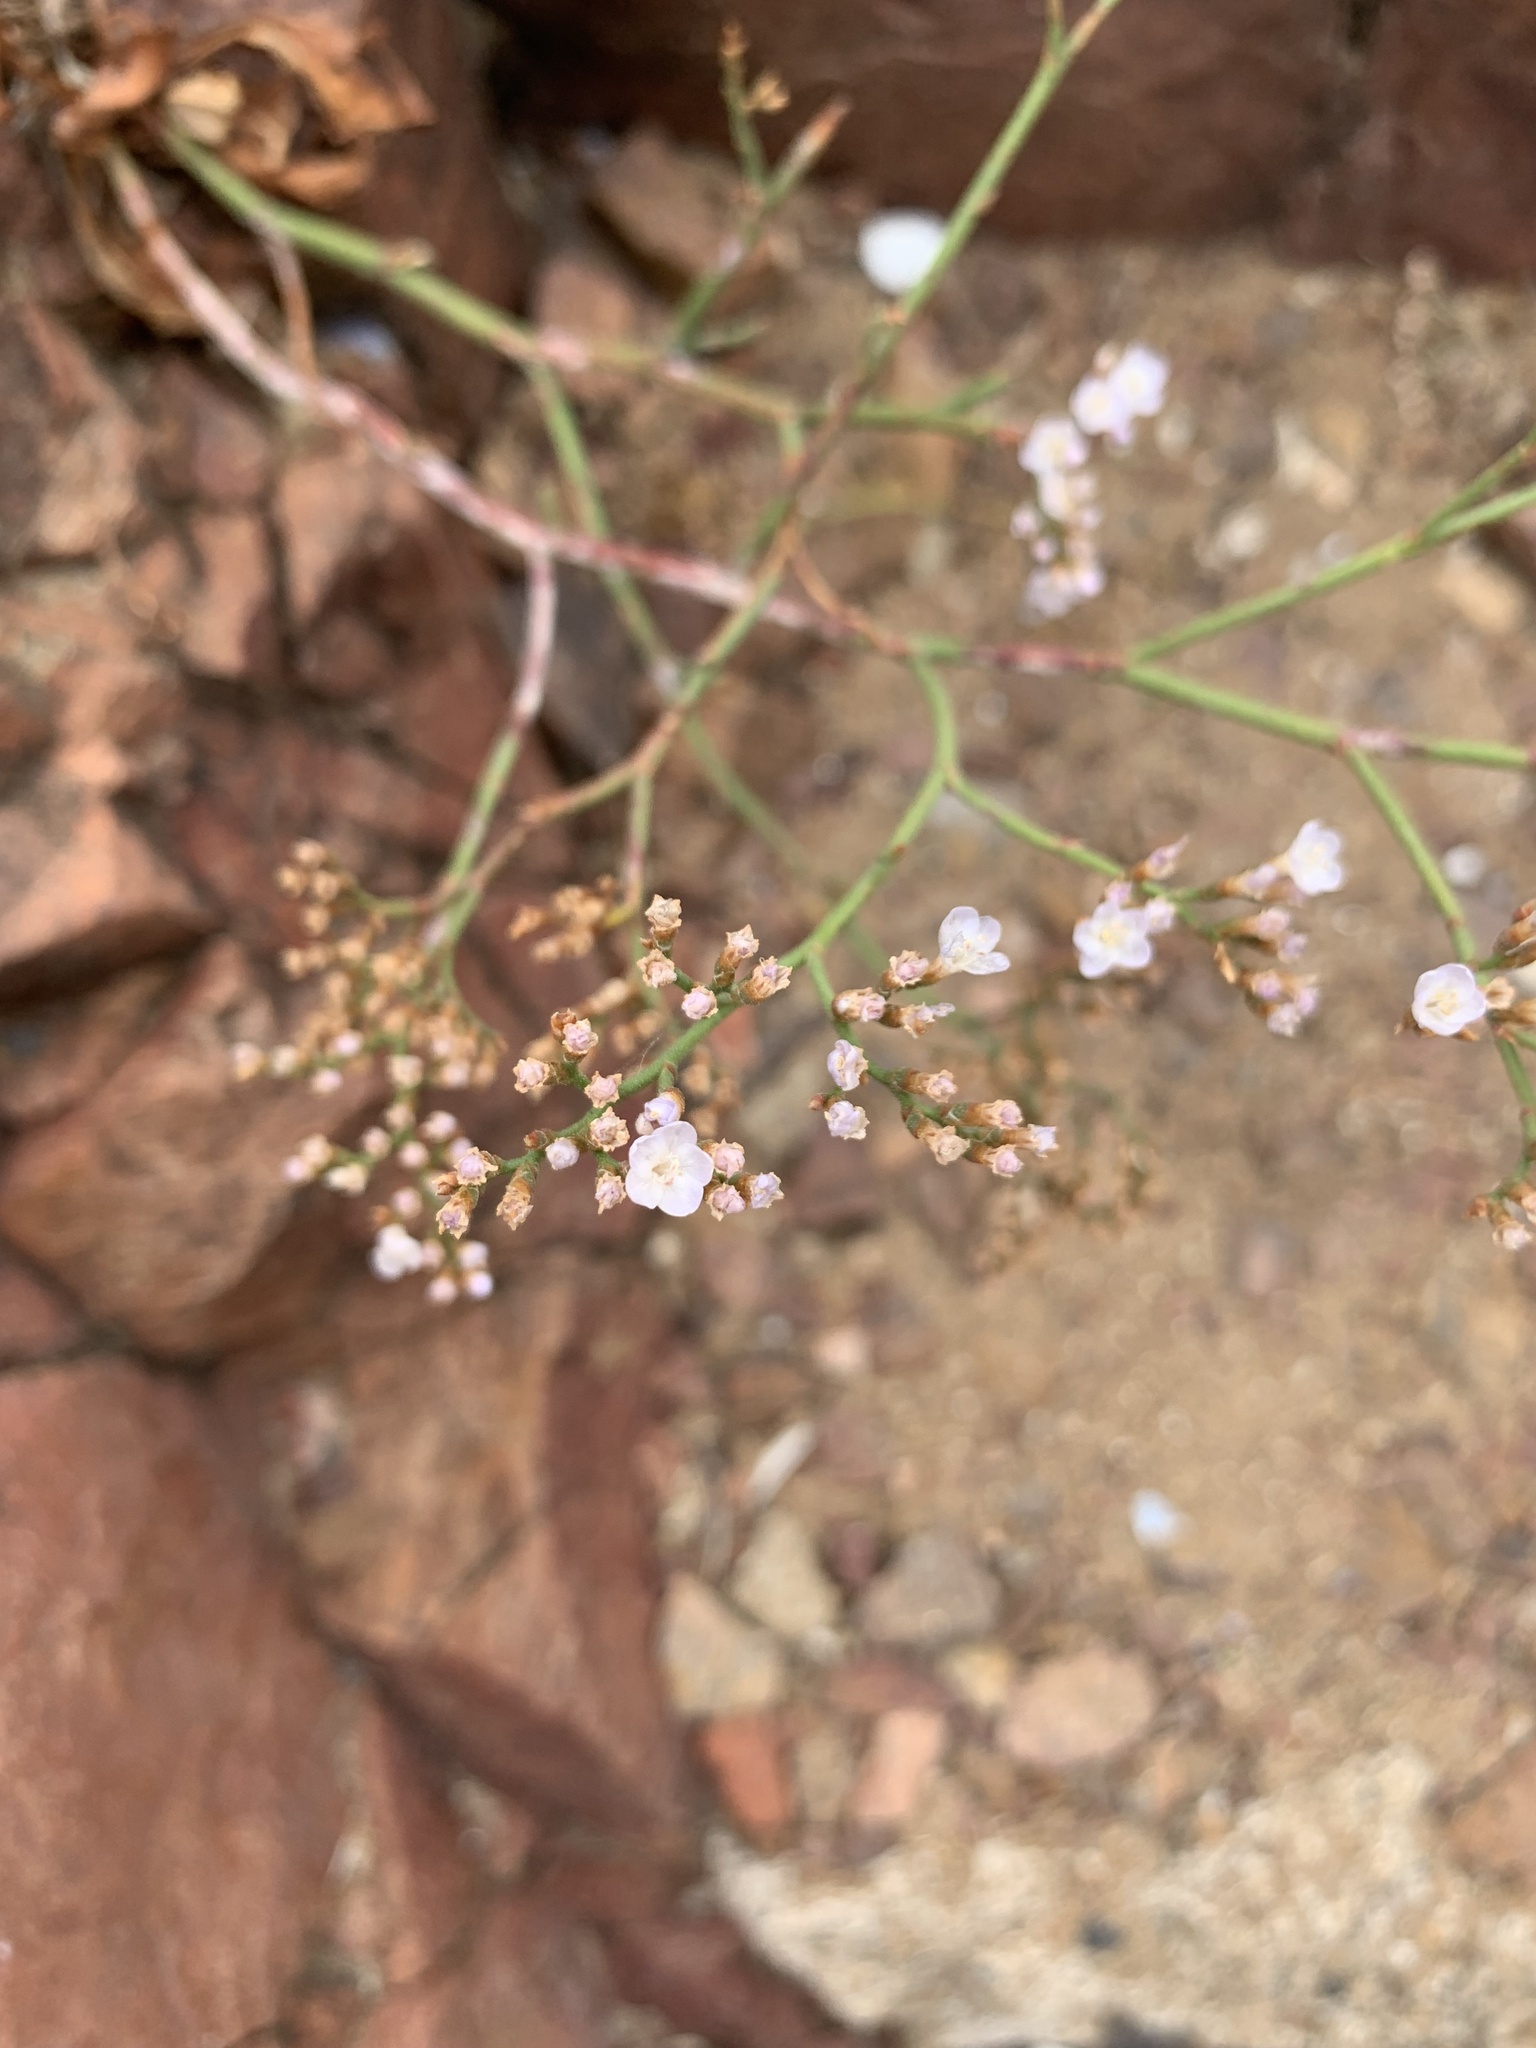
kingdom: Plantae
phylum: Tracheophyta
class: Magnoliopsida
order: Caryophyllales
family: Plumbaginaceae
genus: Limonium
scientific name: Limonium brasiliense
